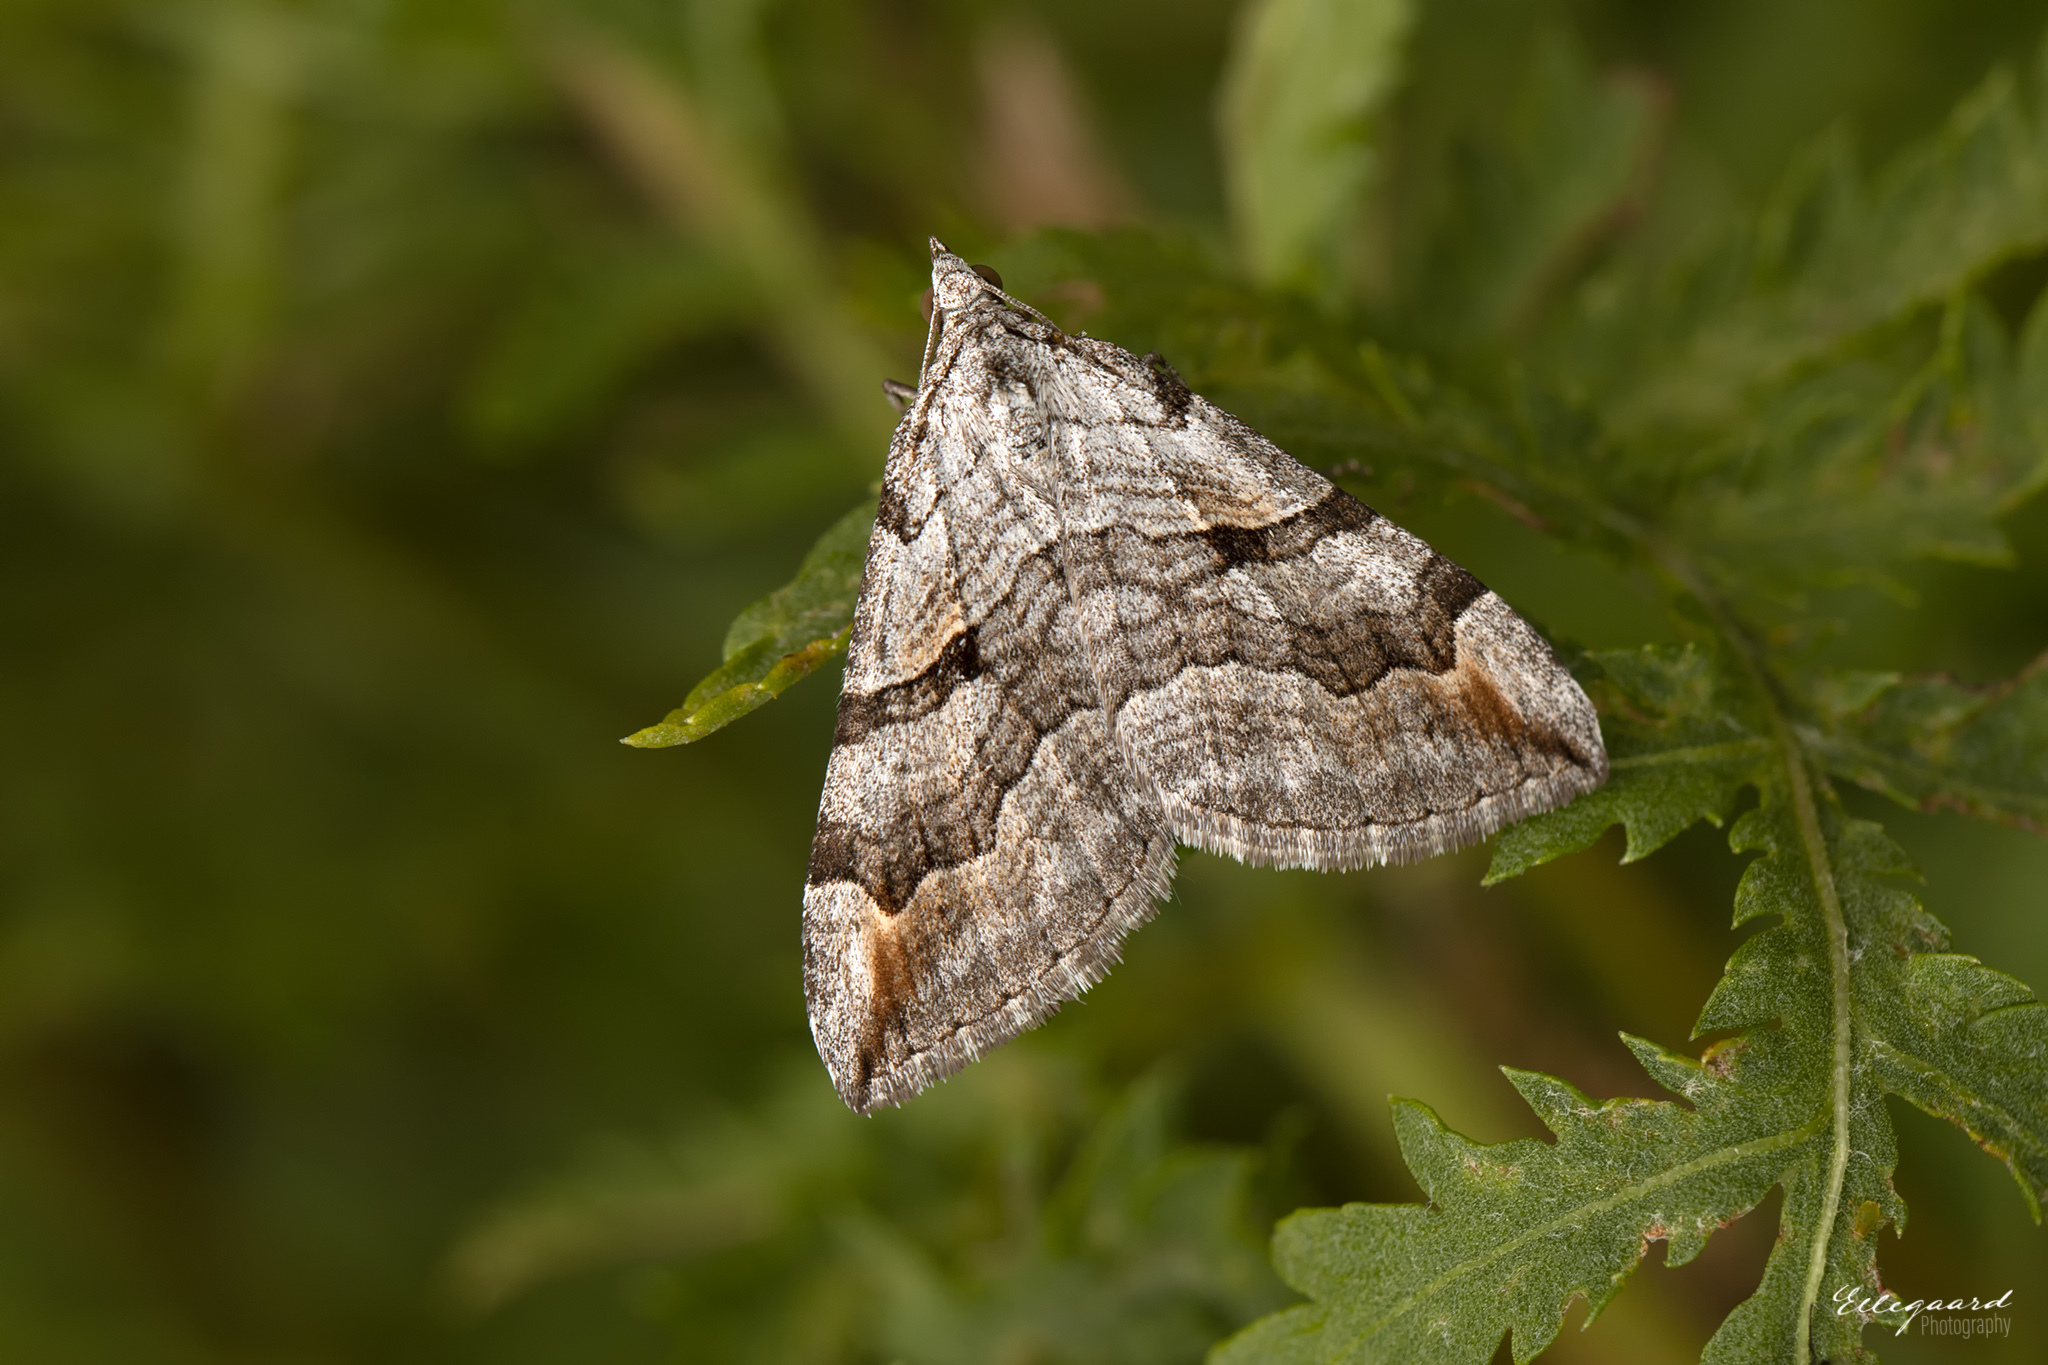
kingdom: Animalia
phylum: Arthropoda
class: Insecta
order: Lepidoptera
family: Geometridae
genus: Aplocera
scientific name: Aplocera plagiata
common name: Treble-bar
